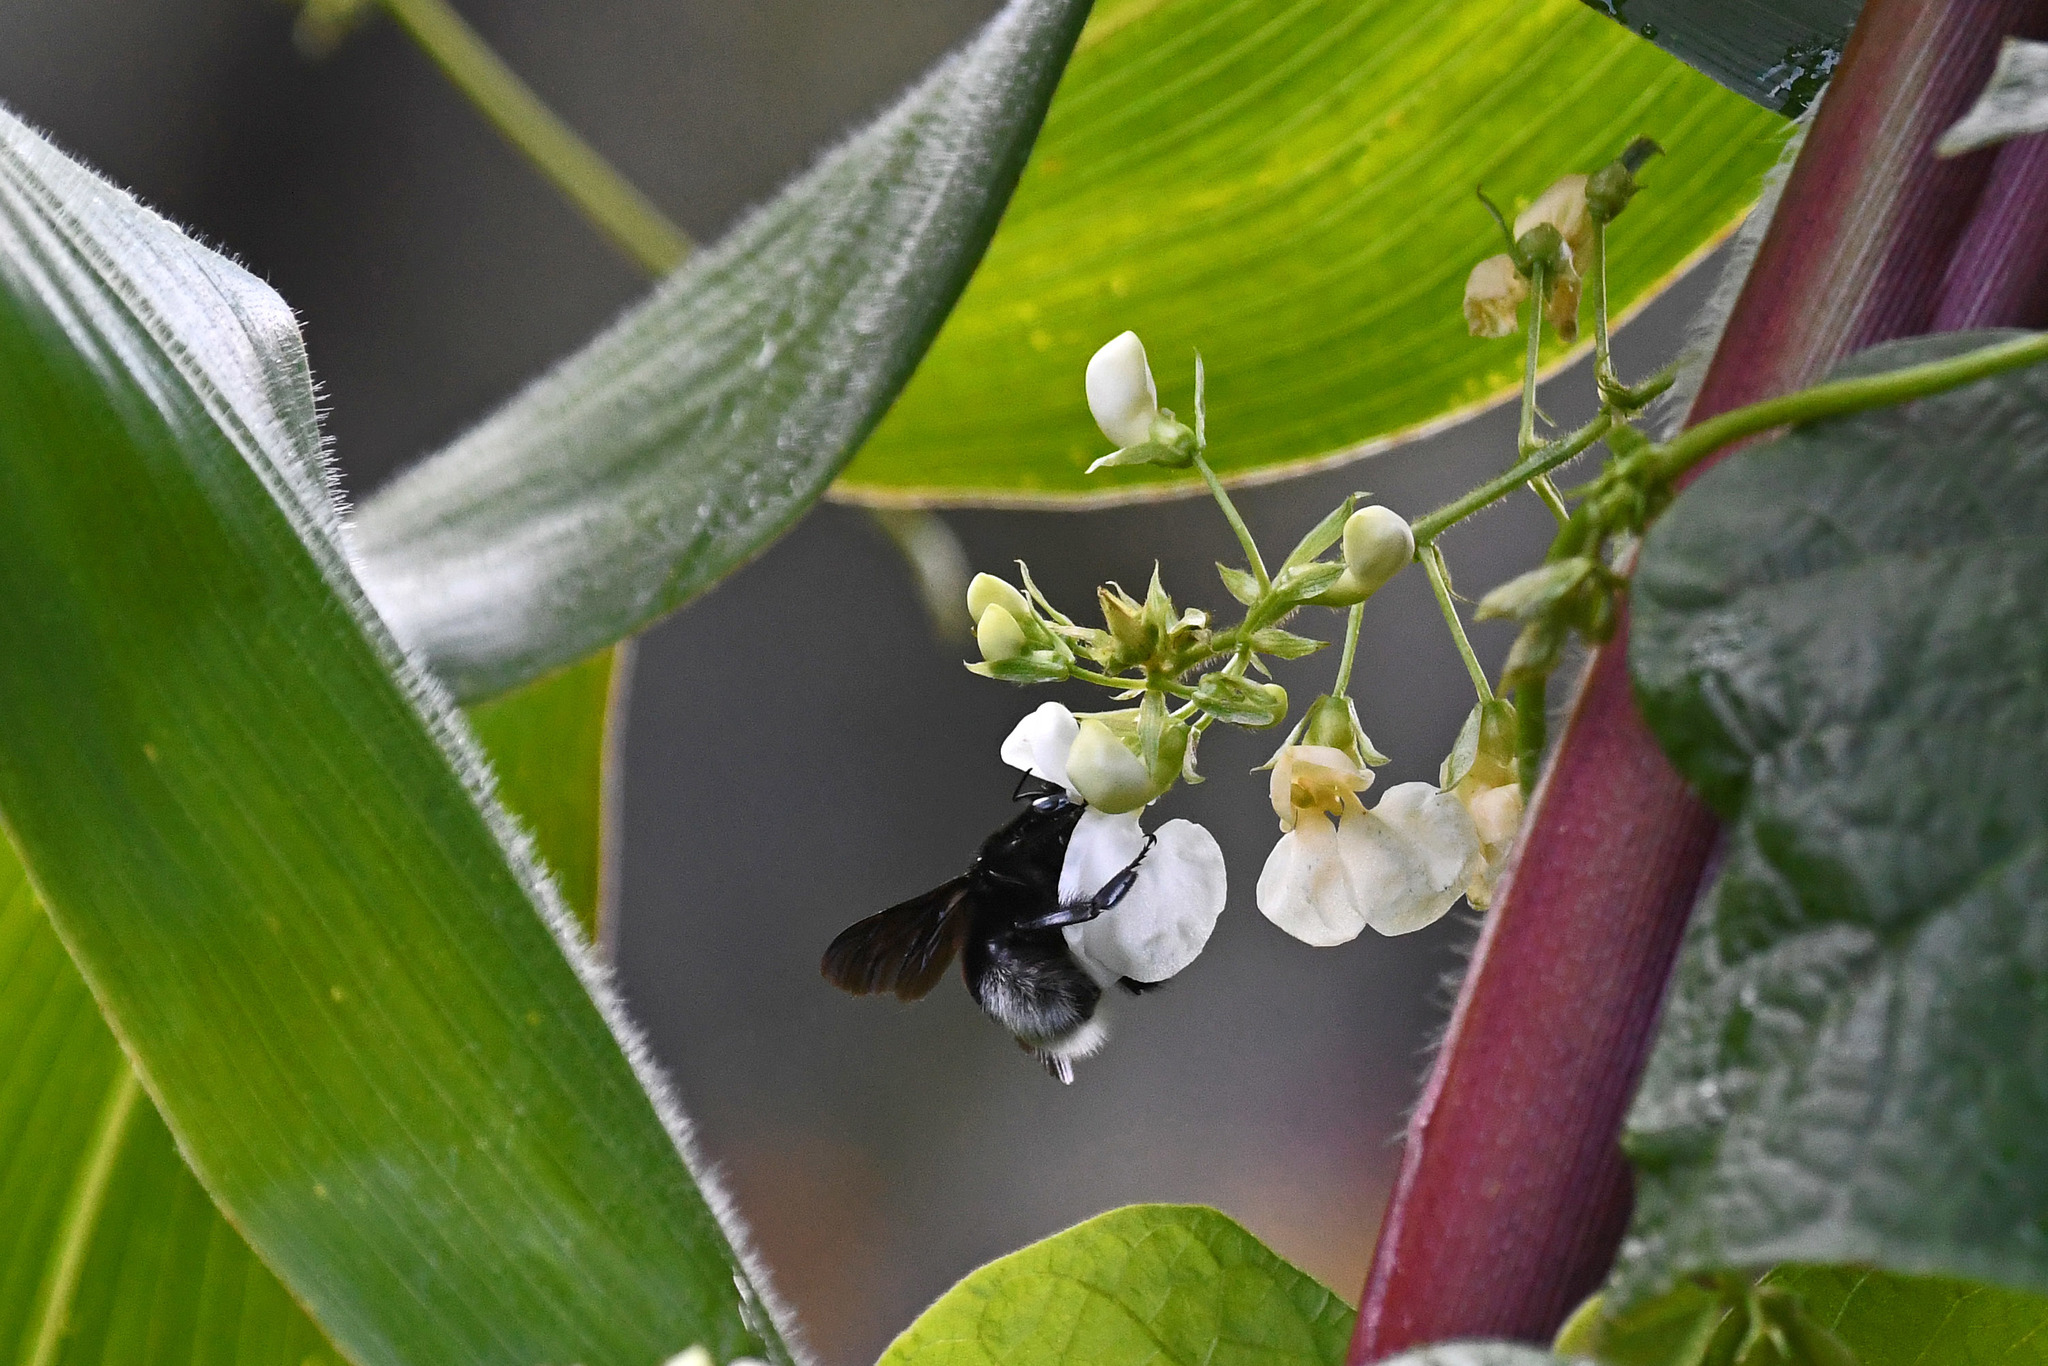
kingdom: Animalia
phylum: Arthropoda
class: Insecta
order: Hymenoptera
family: Apidae
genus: Bombus
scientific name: Bombus volucelloides
